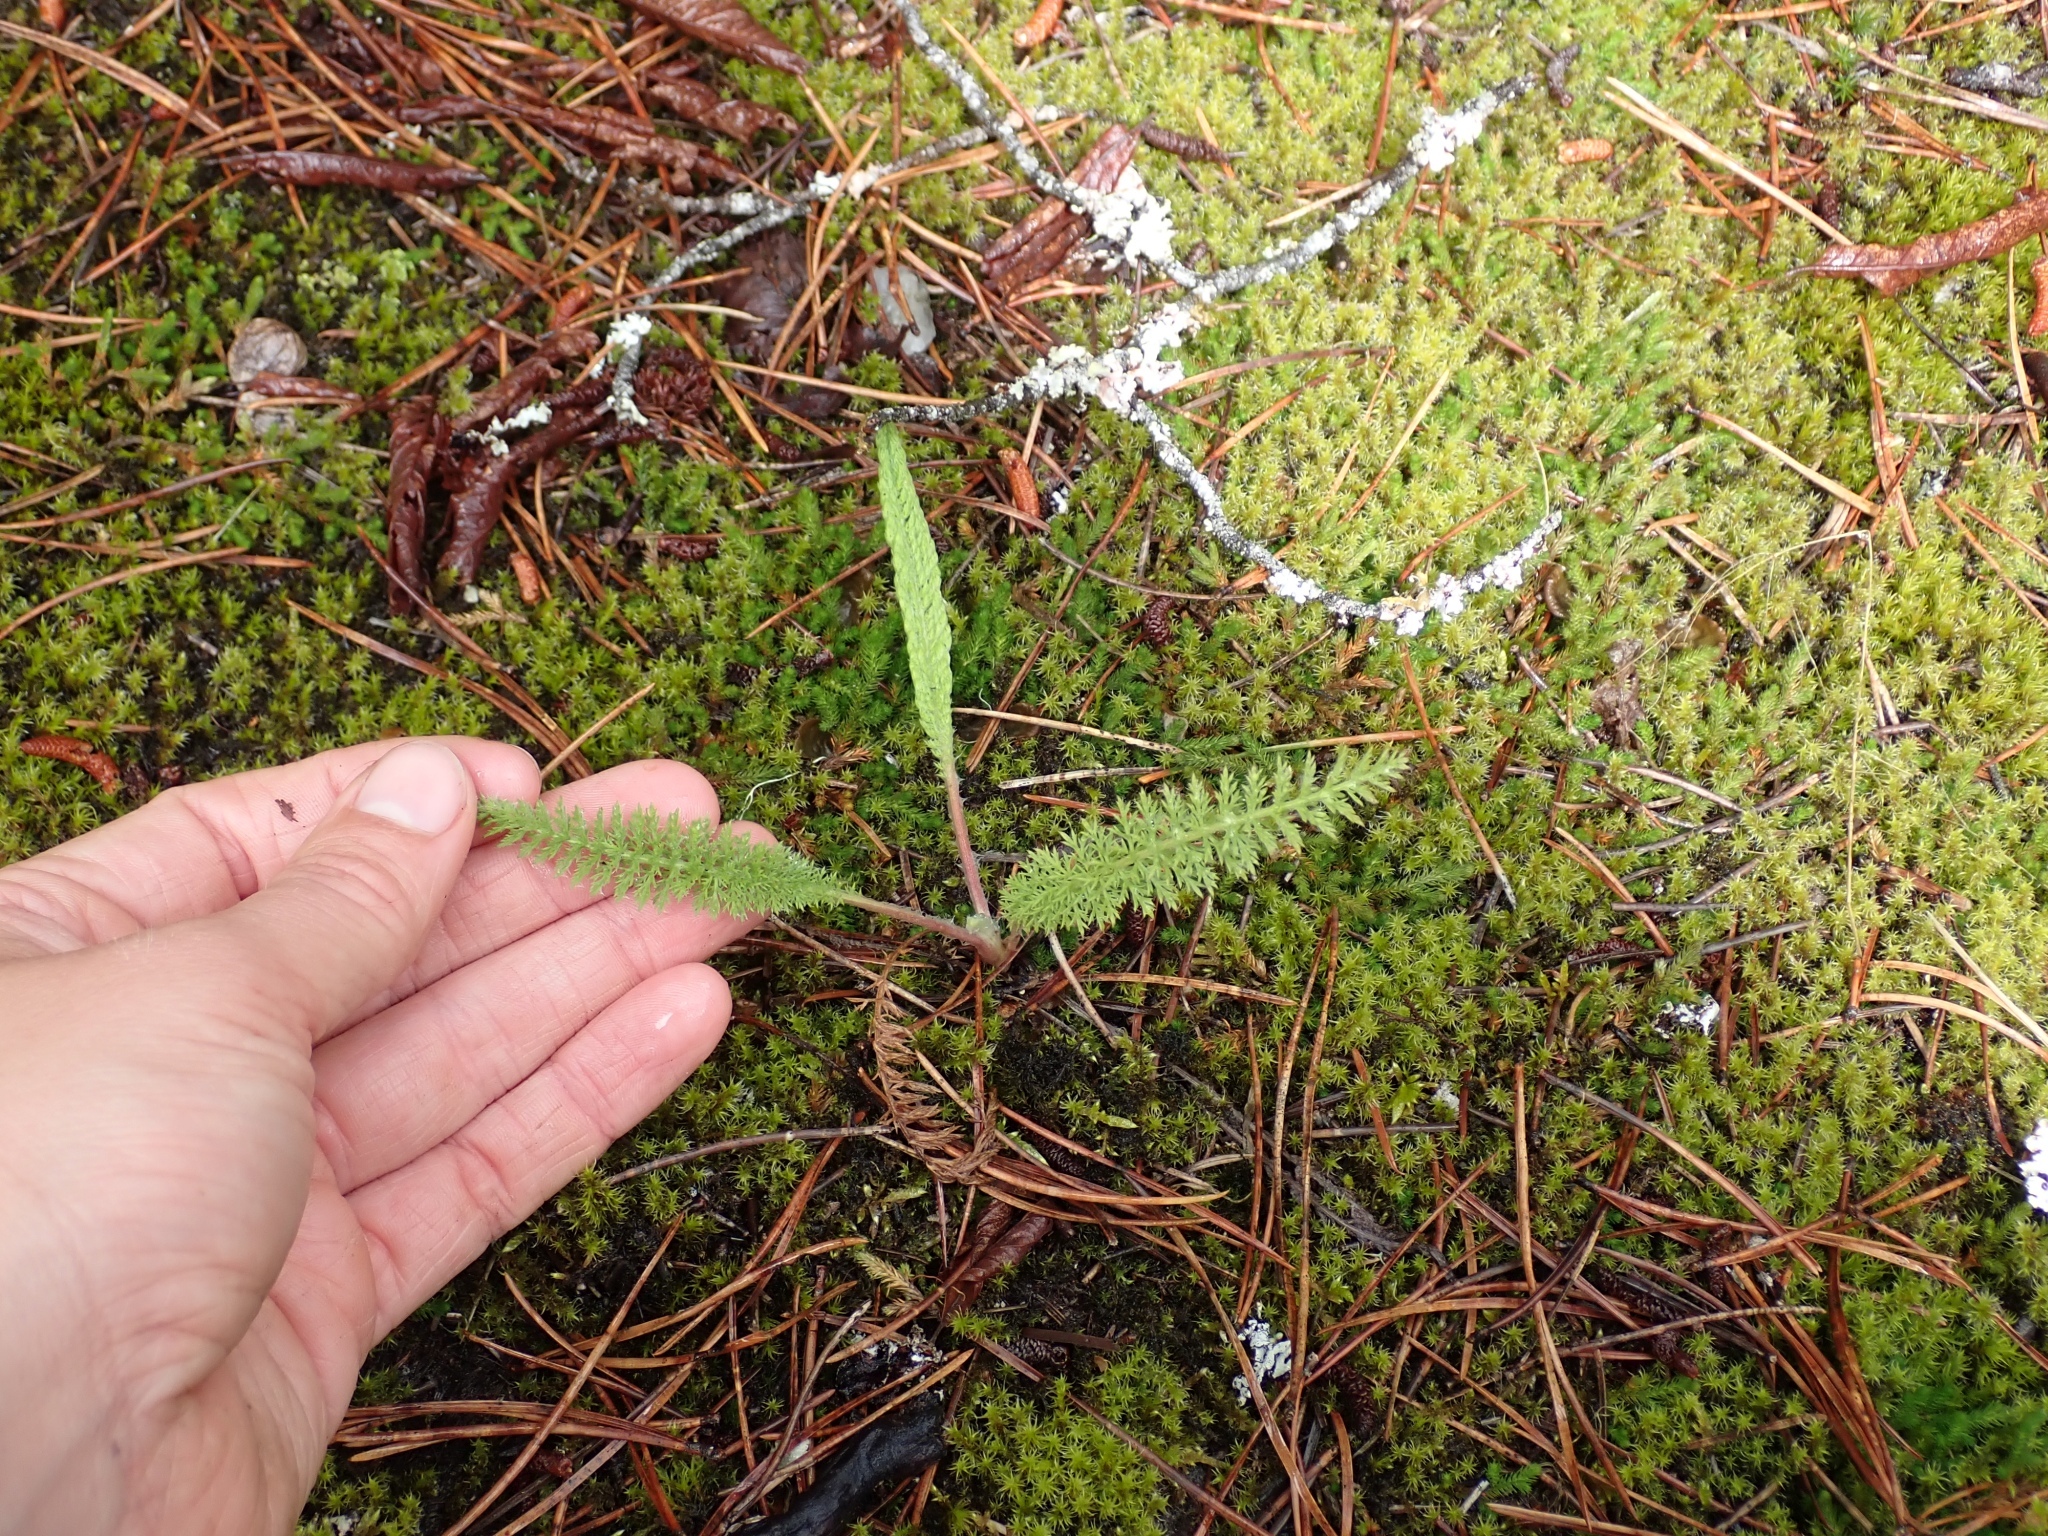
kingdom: Plantae
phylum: Tracheophyta
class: Magnoliopsida
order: Asterales
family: Asteraceae
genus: Achillea
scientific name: Achillea millefolium
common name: Yarrow
